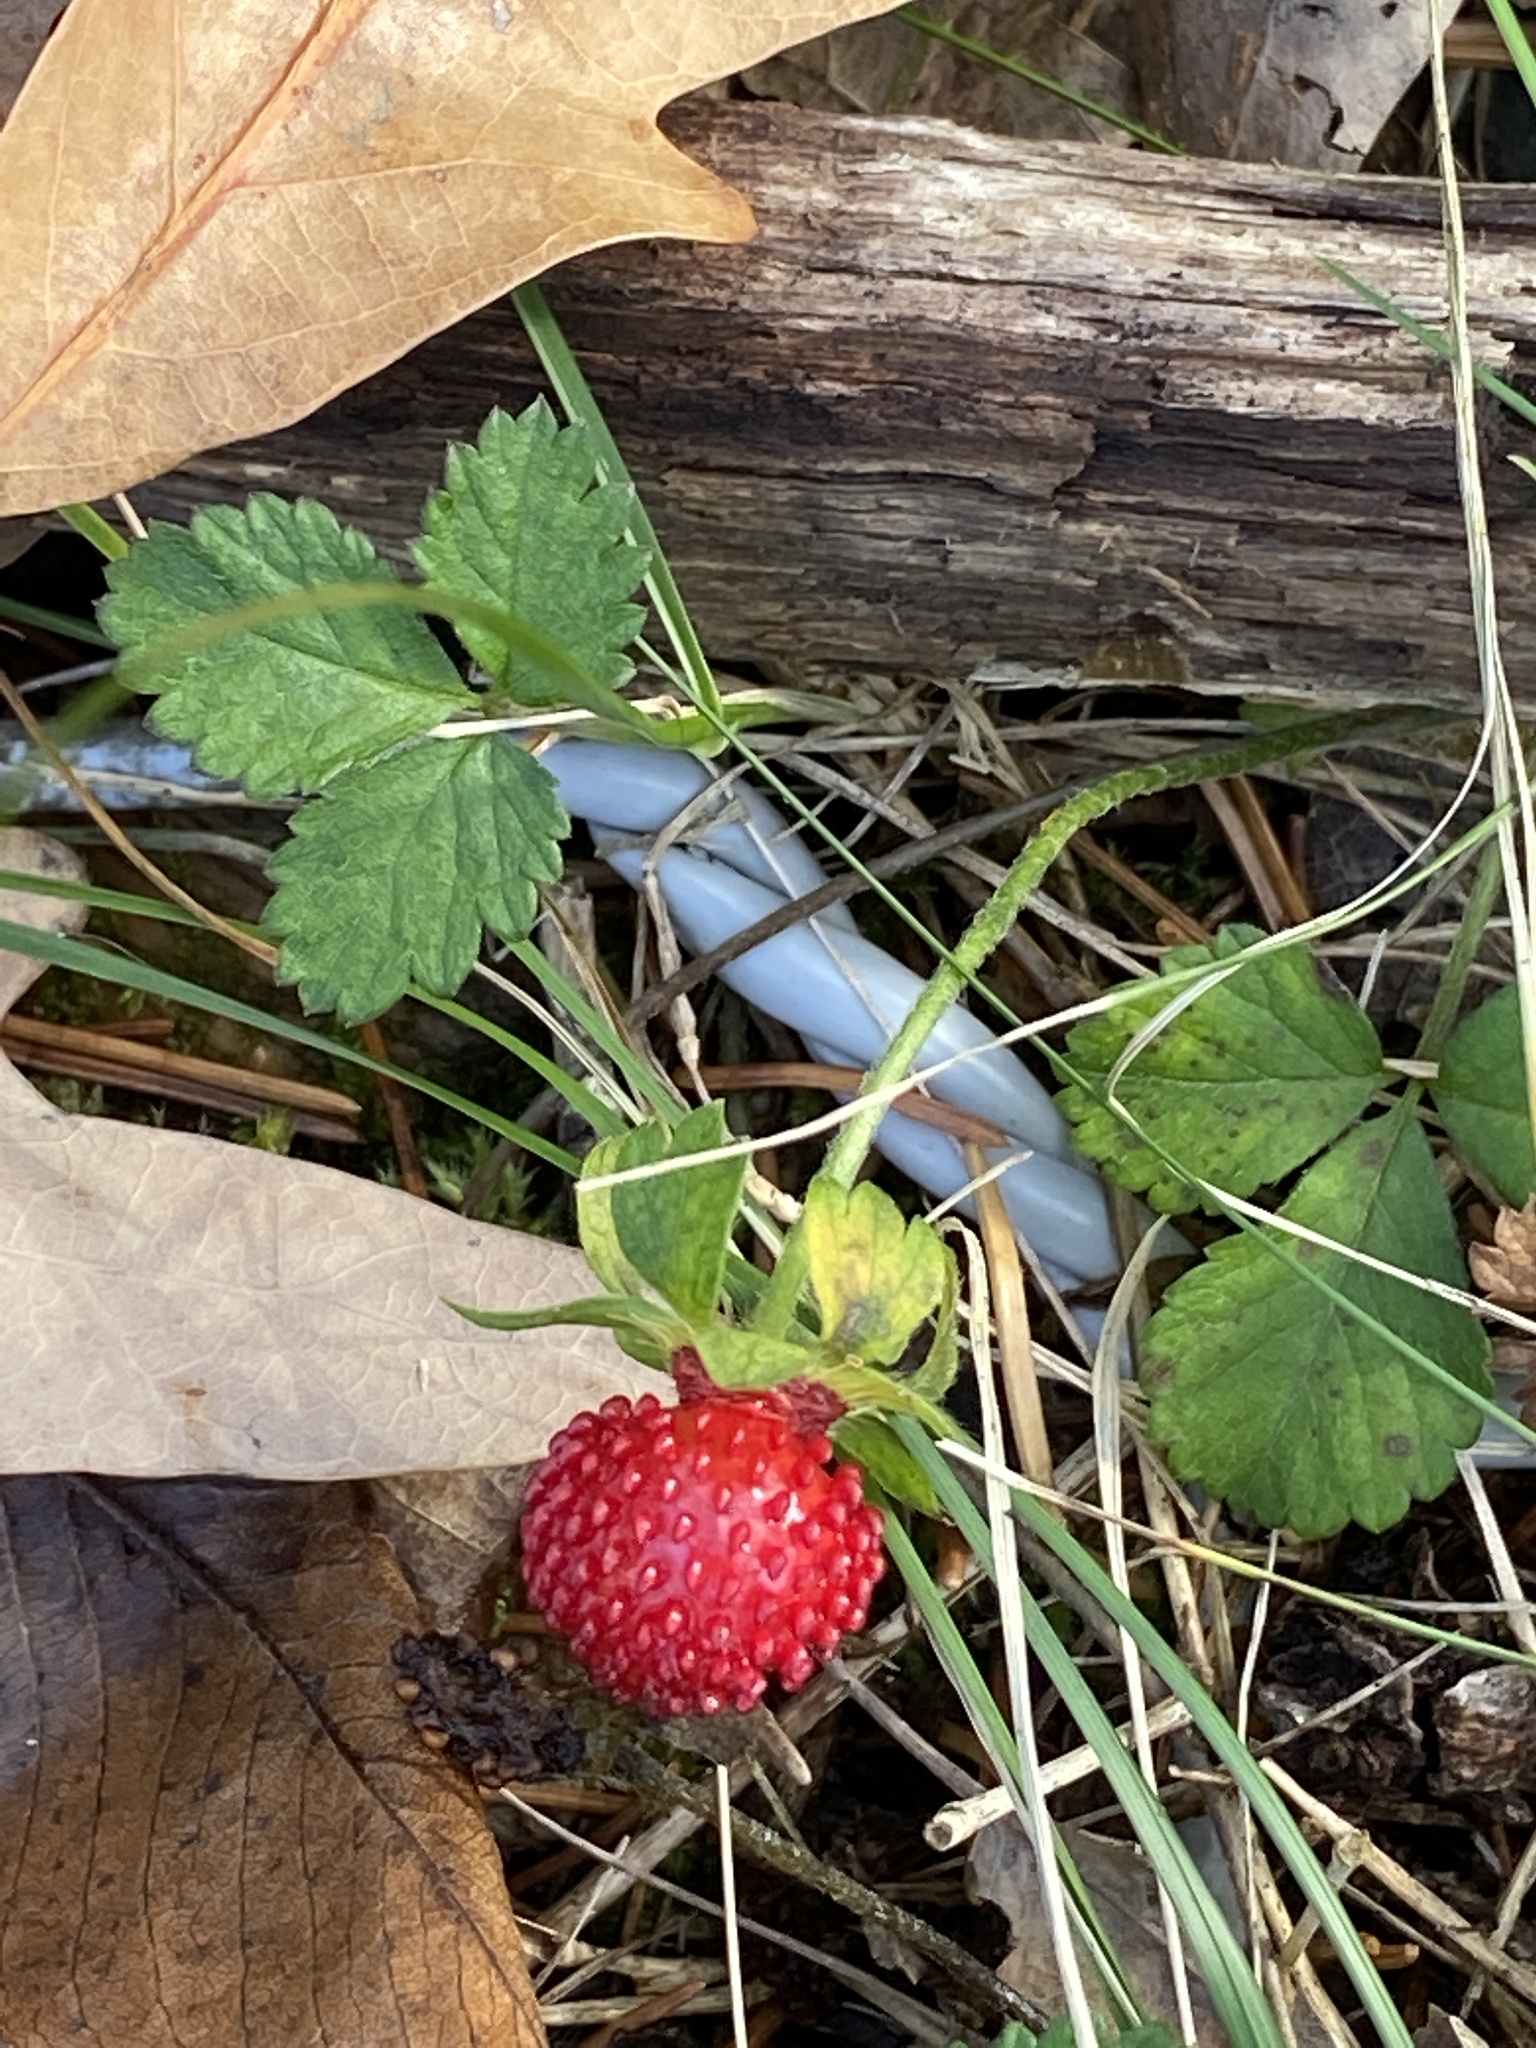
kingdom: Plantae
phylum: Tracheophyta
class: Magnoliopsida
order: Rosales
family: Rosaceae
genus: Potentilla
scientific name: Potentilla indica
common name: Yellow-flowered strawberry
